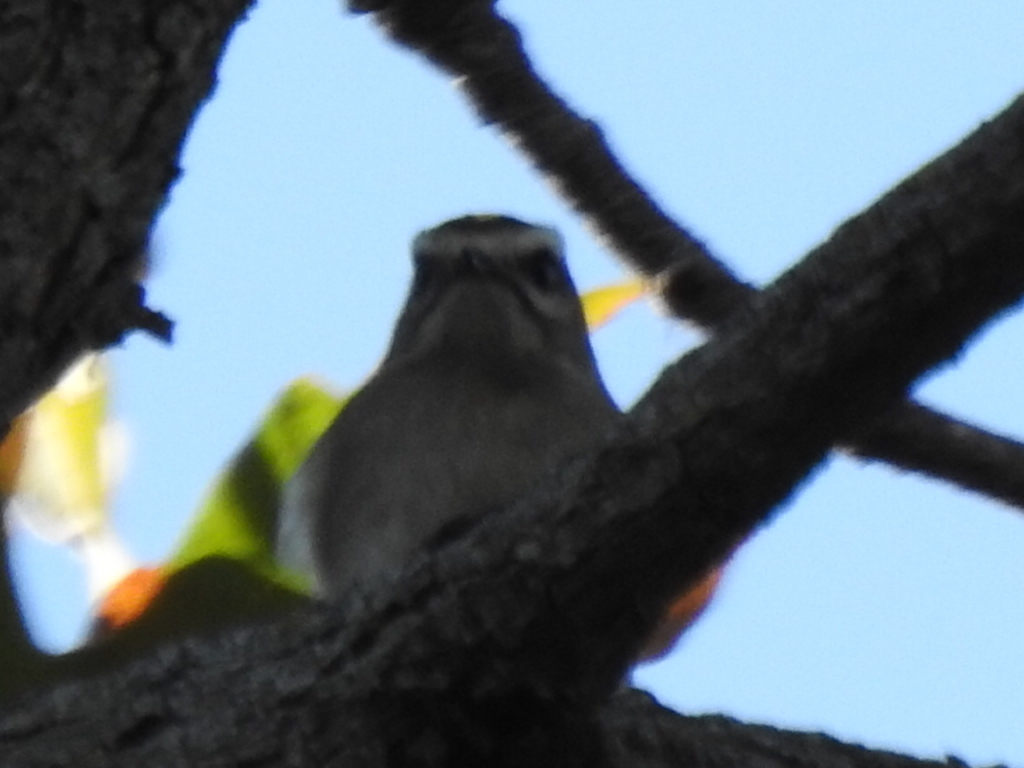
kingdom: Animalia
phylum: Chordata
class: Aves
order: Passeriformes
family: Regulidae
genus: Regulus
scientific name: Regulus satrapa
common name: Golden-crowned kinglet
